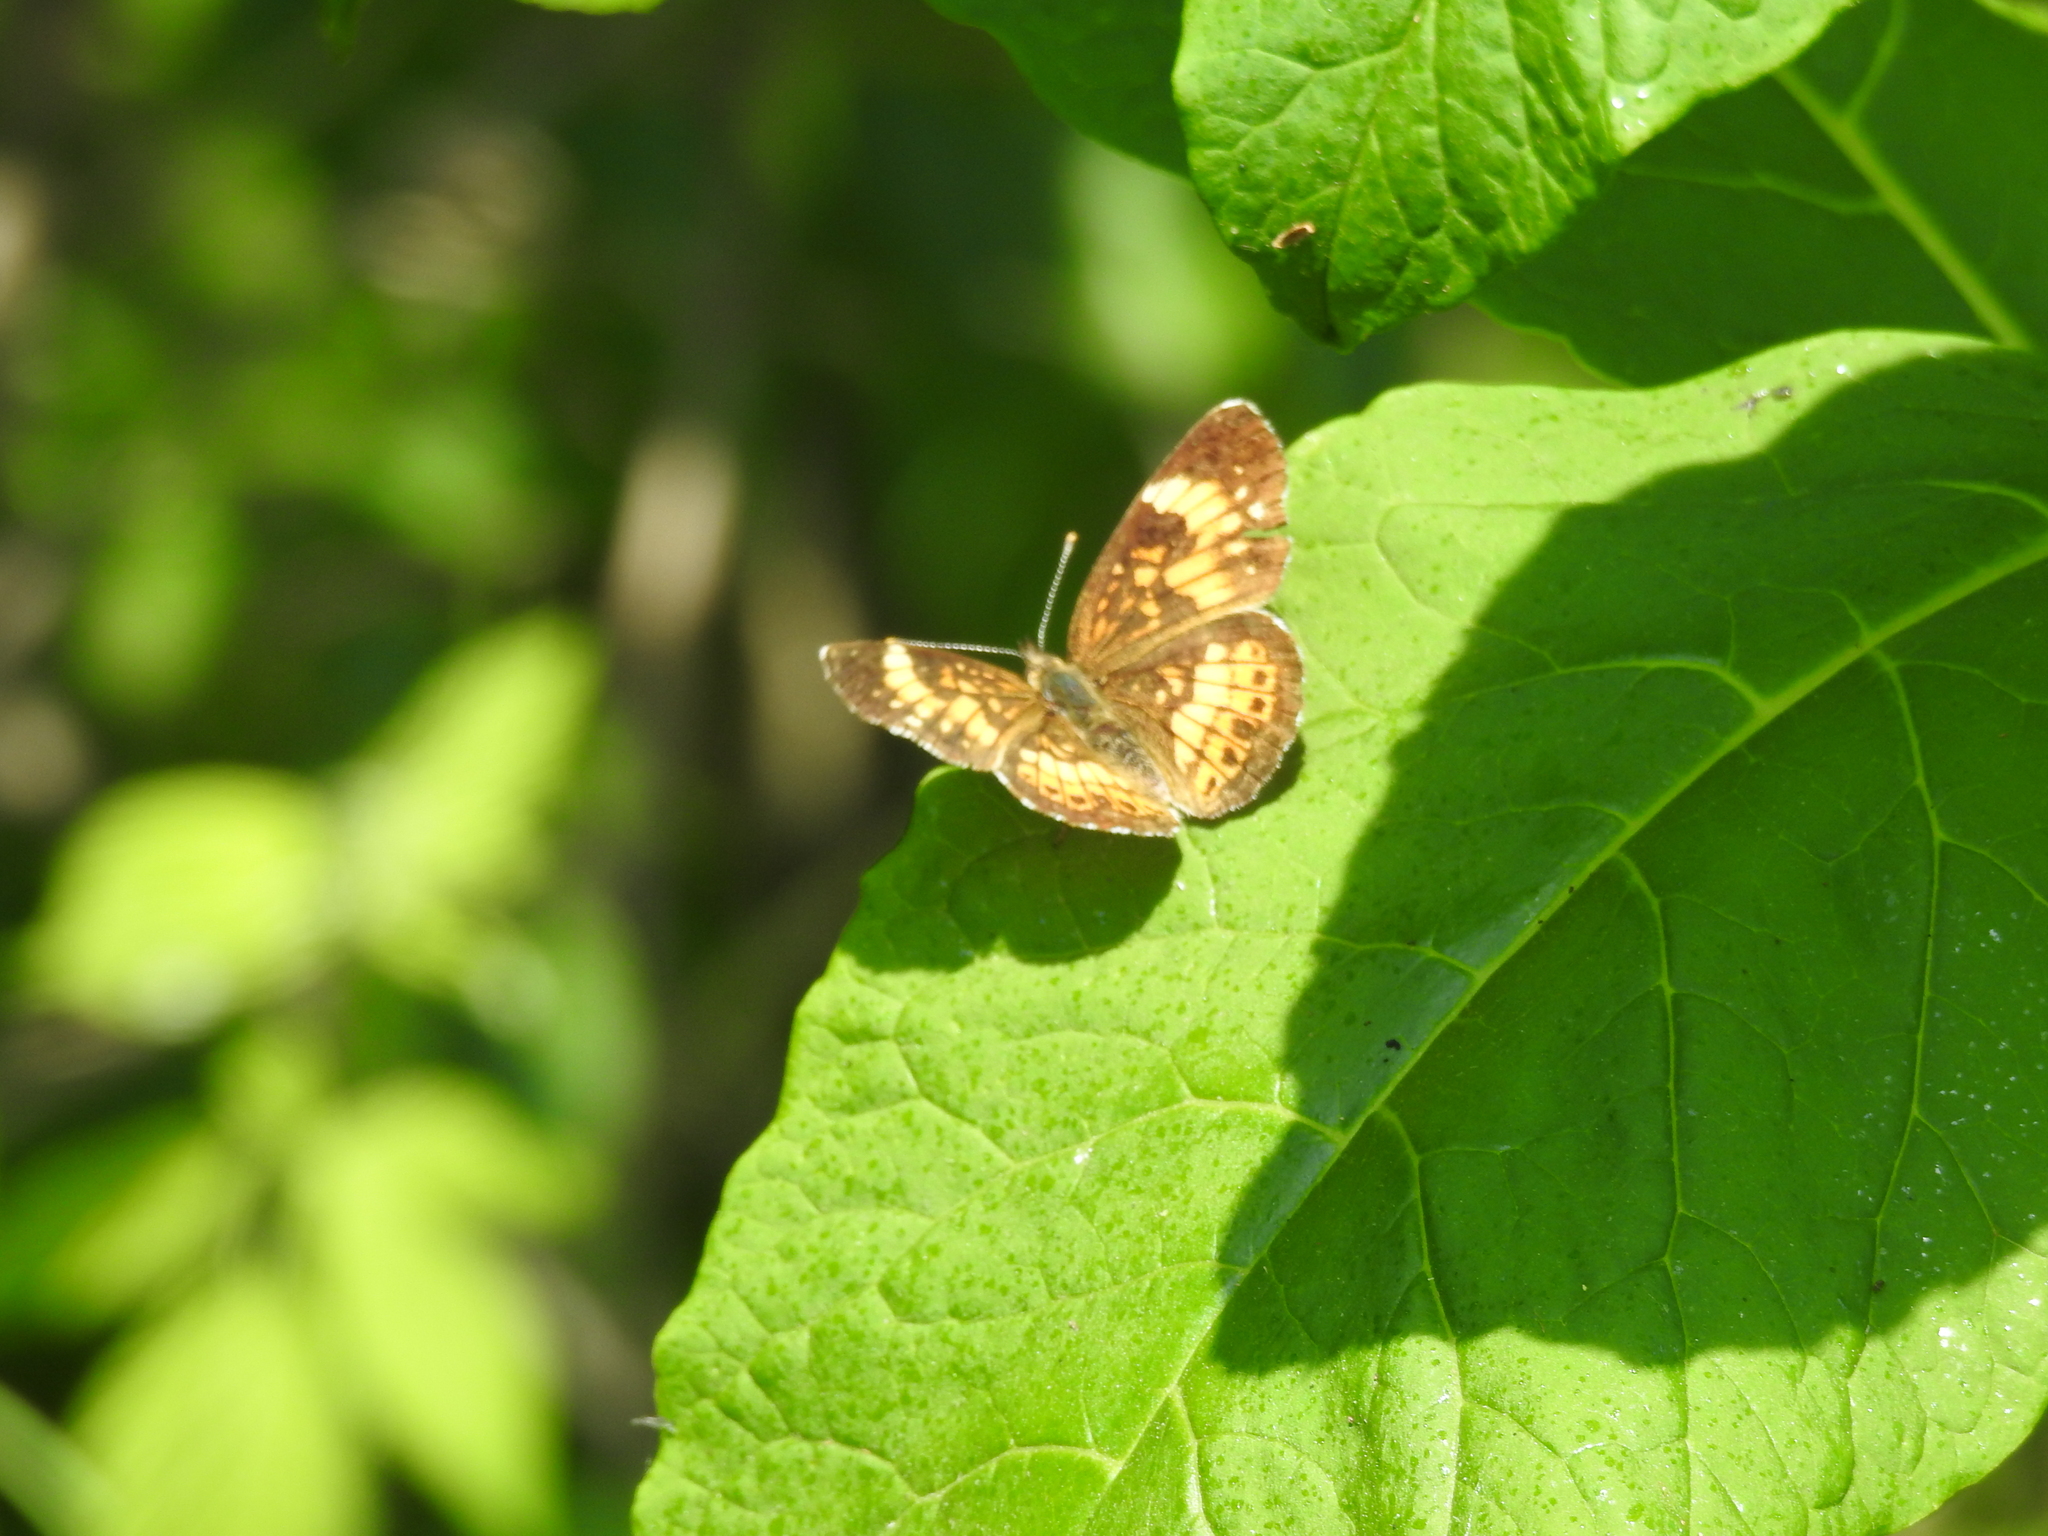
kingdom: Animalia
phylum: Arthropoda
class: Insecta
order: Lepidoptera
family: Nymphalidae
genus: Chlosyne
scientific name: Chlosyne nycteis
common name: Silvery checkerspot
